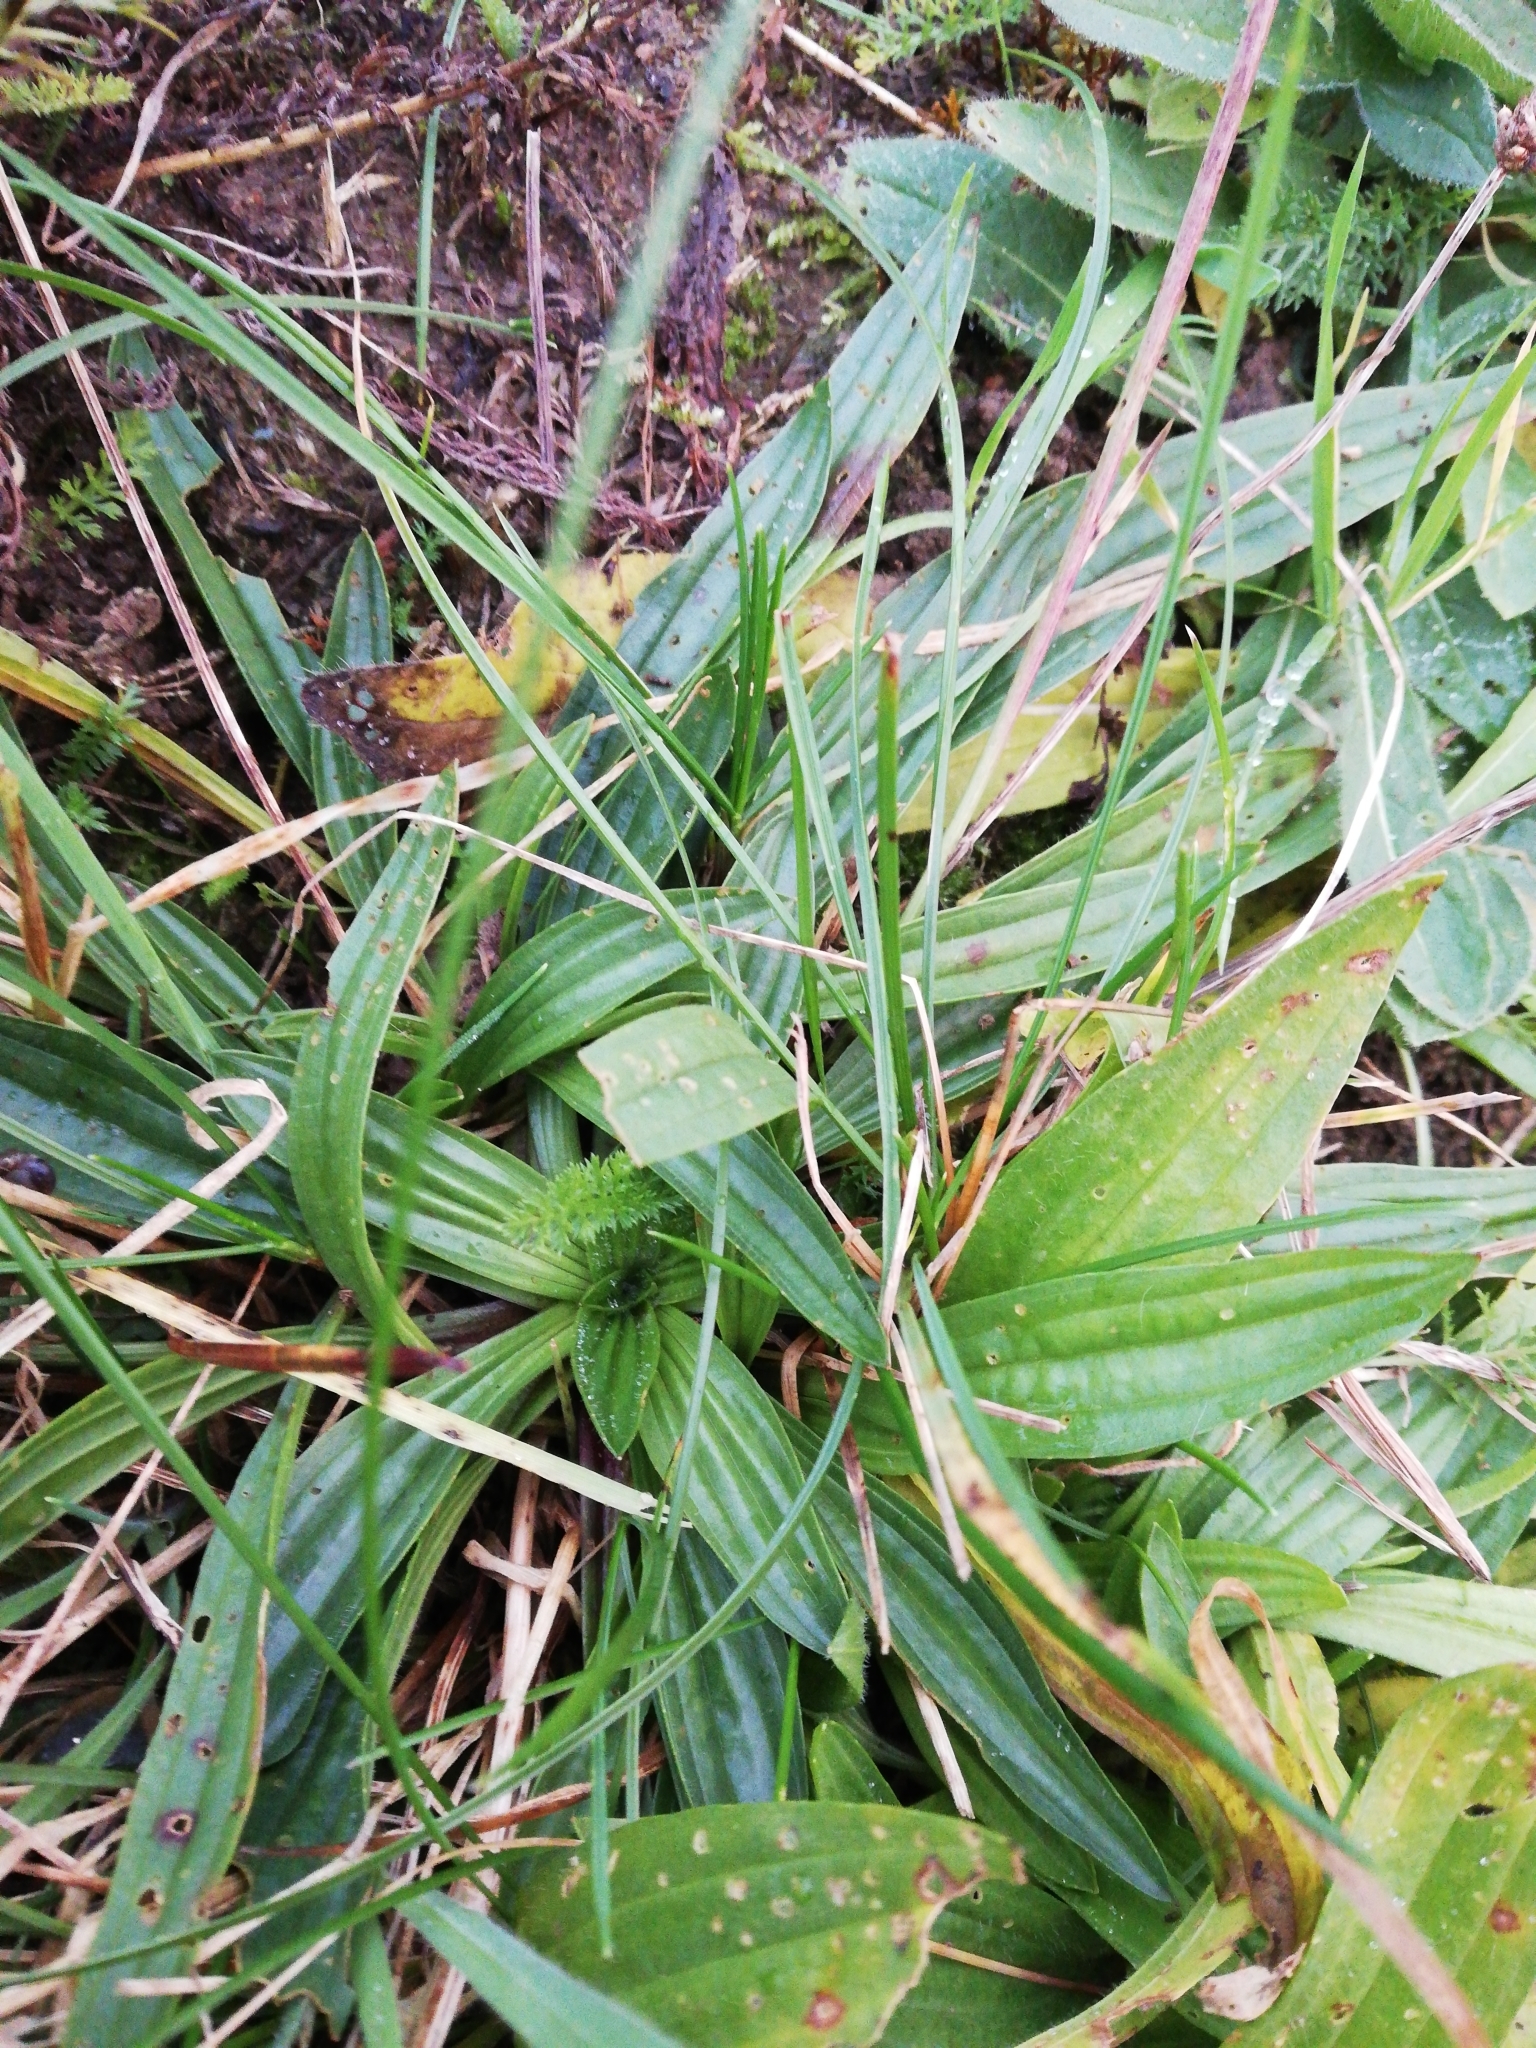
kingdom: Plantae
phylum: Tracheophyta
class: Magnoliopsida
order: Lamiales
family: Plantaginaceae
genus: Plantago
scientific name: Plantago lanceolata
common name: Ribwort plantain
